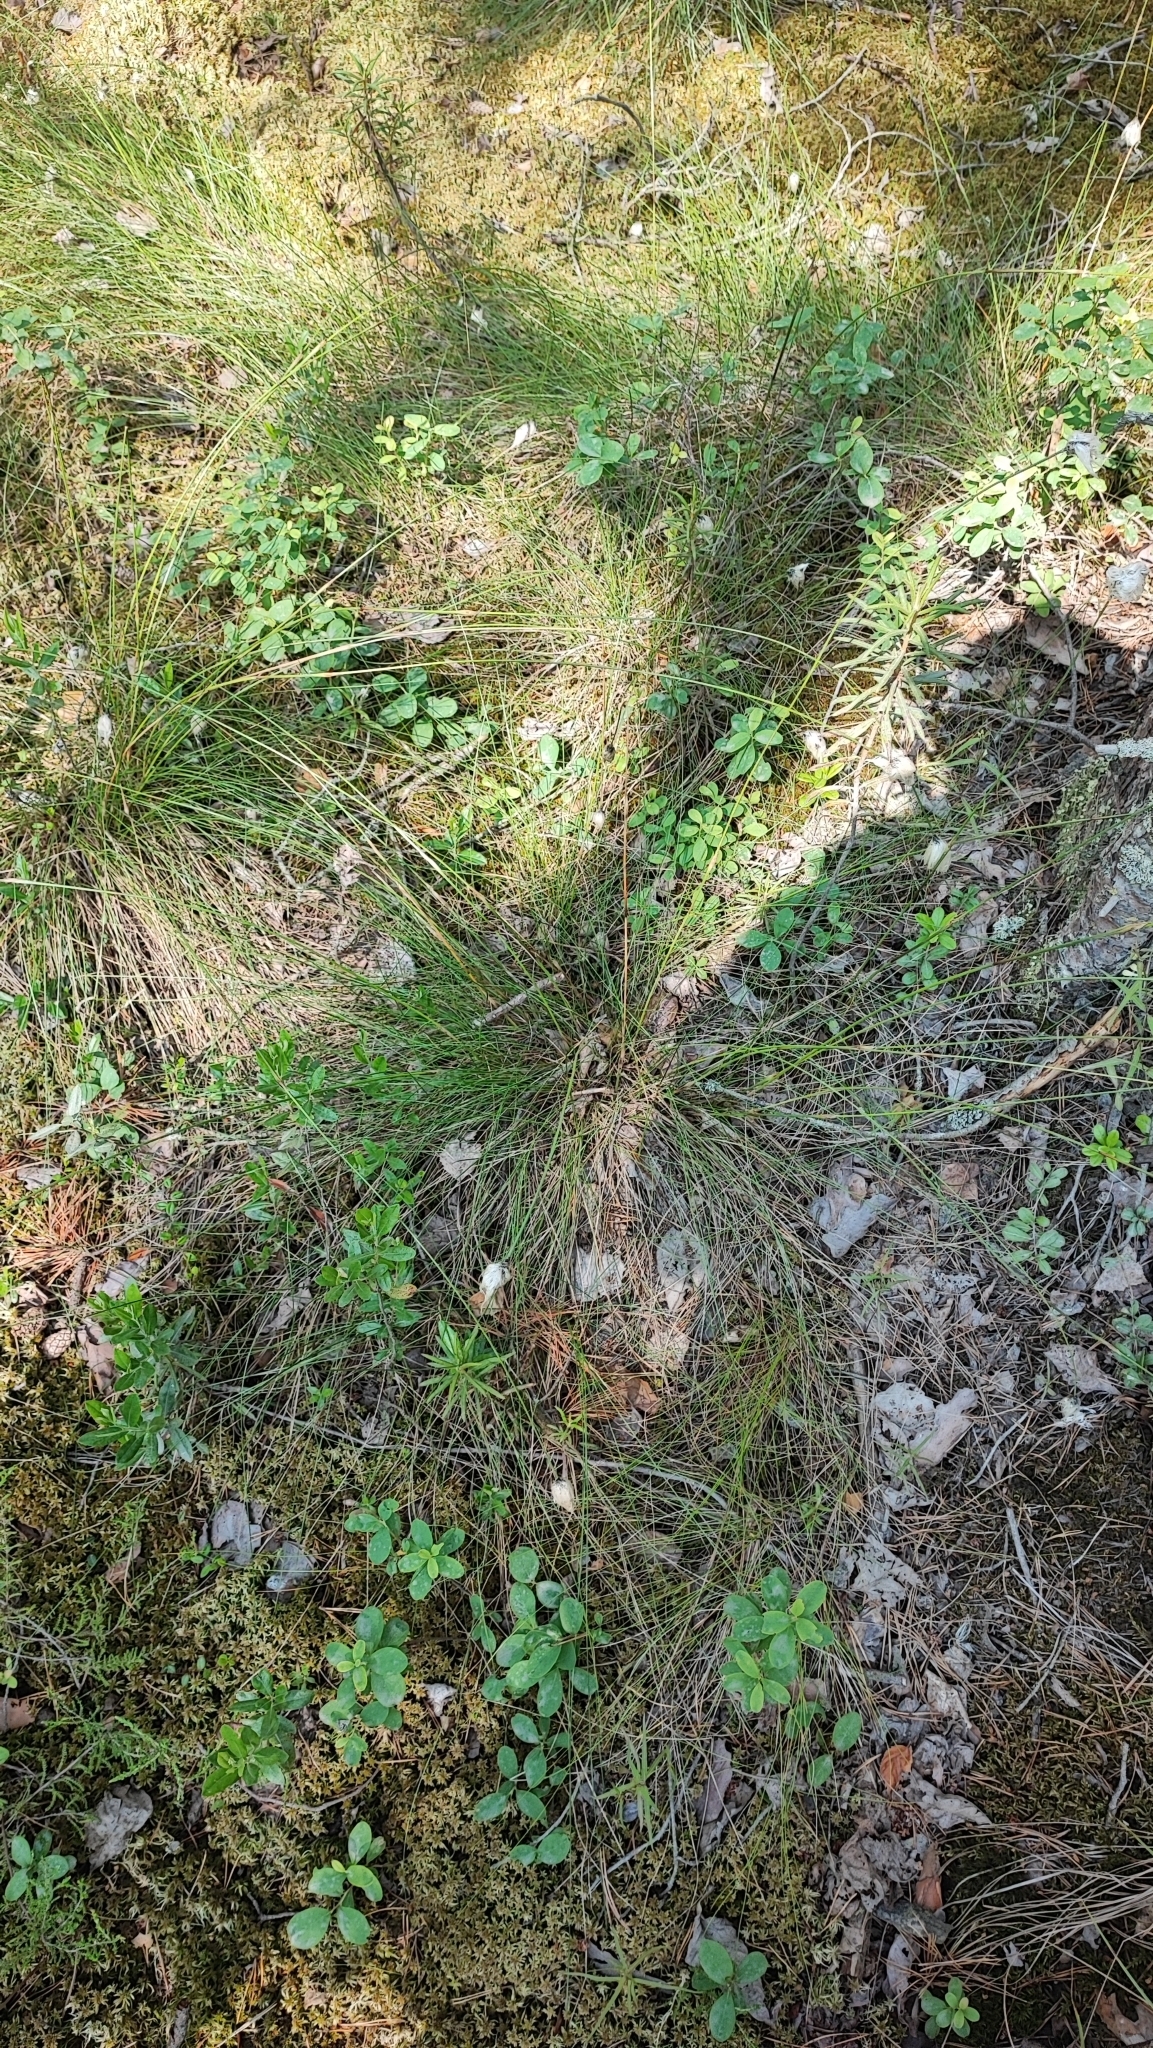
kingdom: Plantae
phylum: Tracheophyta
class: Liliopsida
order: Poales
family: Cyperaceae
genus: Eriophorum
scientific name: Eriophorum vaginatum
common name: Hare's-tail cottongrass
